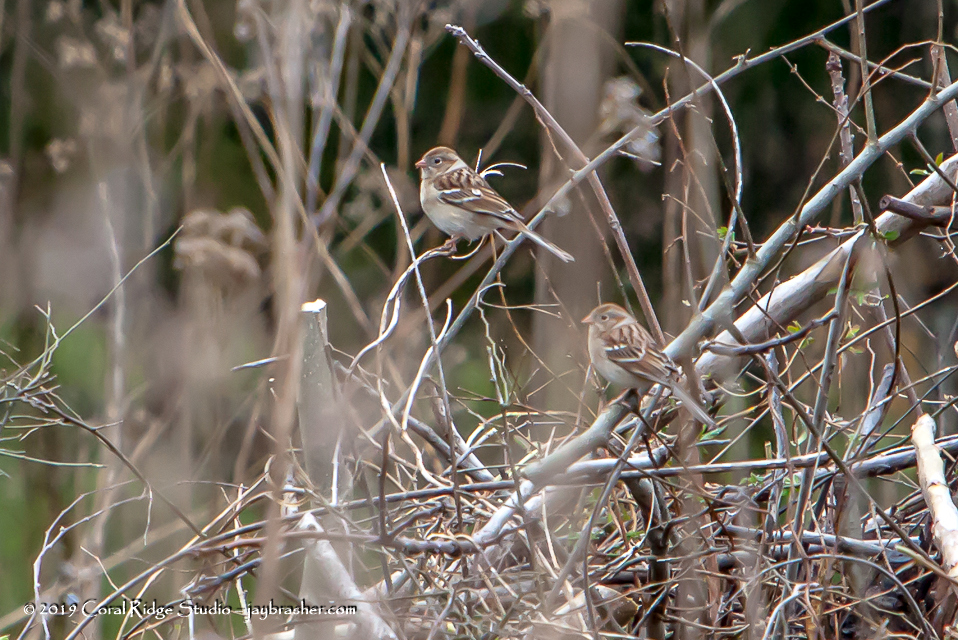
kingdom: Animalia
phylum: Chordata
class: Aves
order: Passeriformes
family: Passerellidae
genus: Spizella
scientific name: Spizella pusilla
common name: Field sparrow
